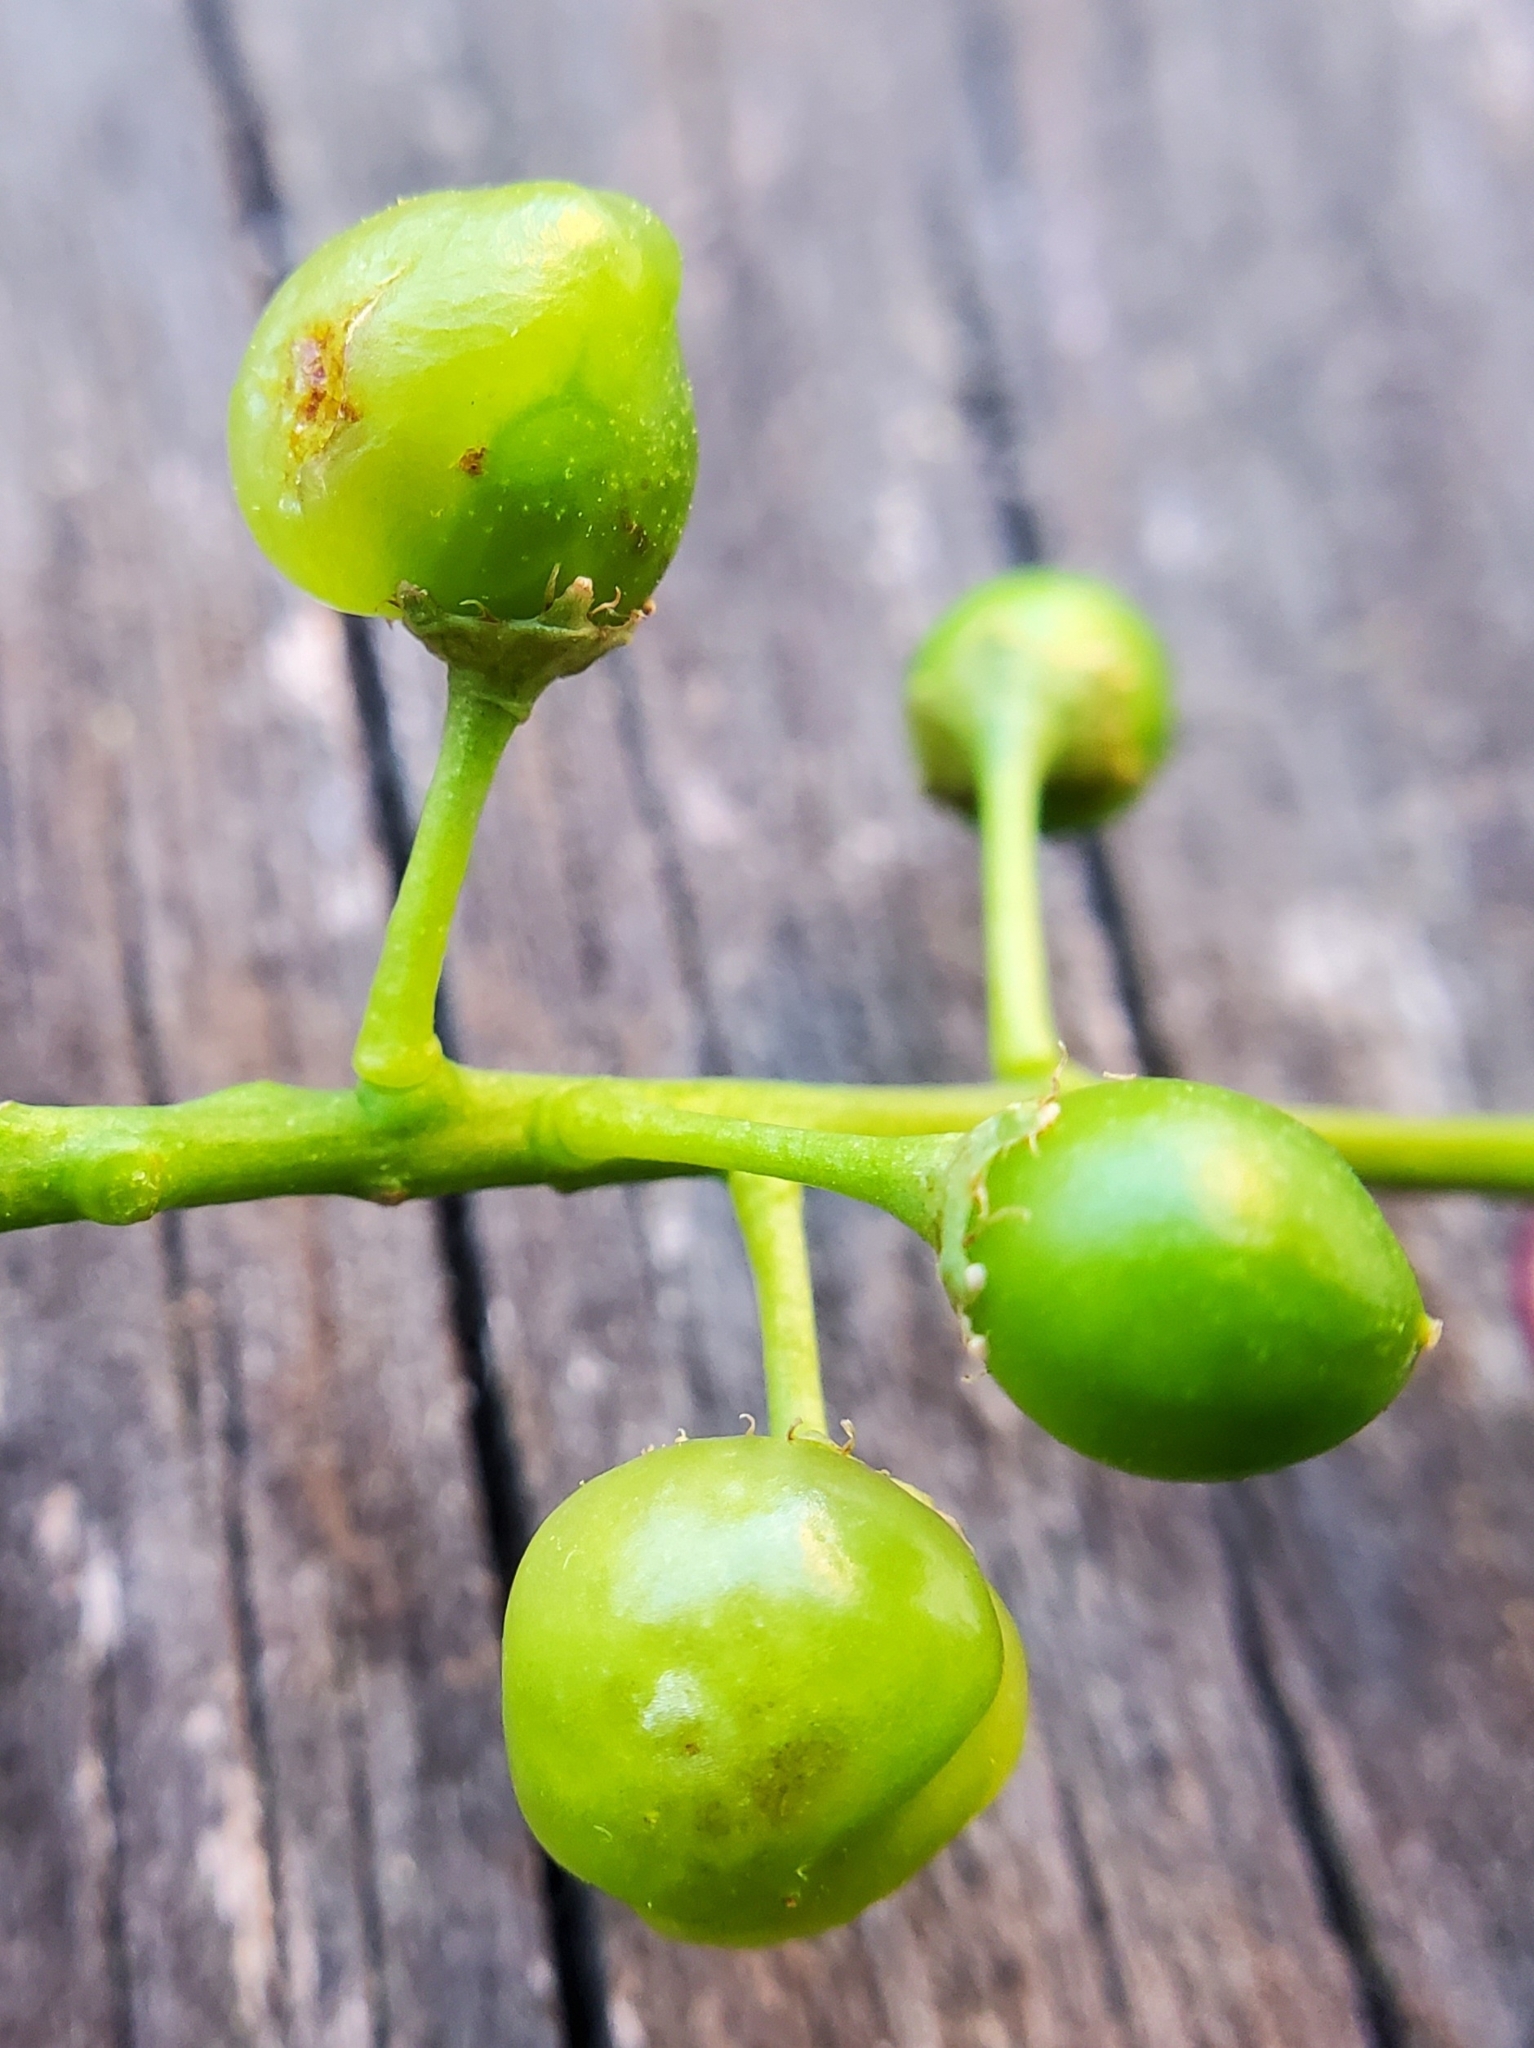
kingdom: Animalia
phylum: Arthropoda
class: Insecta
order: Diptera
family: Cecidomyiidae
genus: Contarinia
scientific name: Contarinia virginianiae
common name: Chokecherry midge
